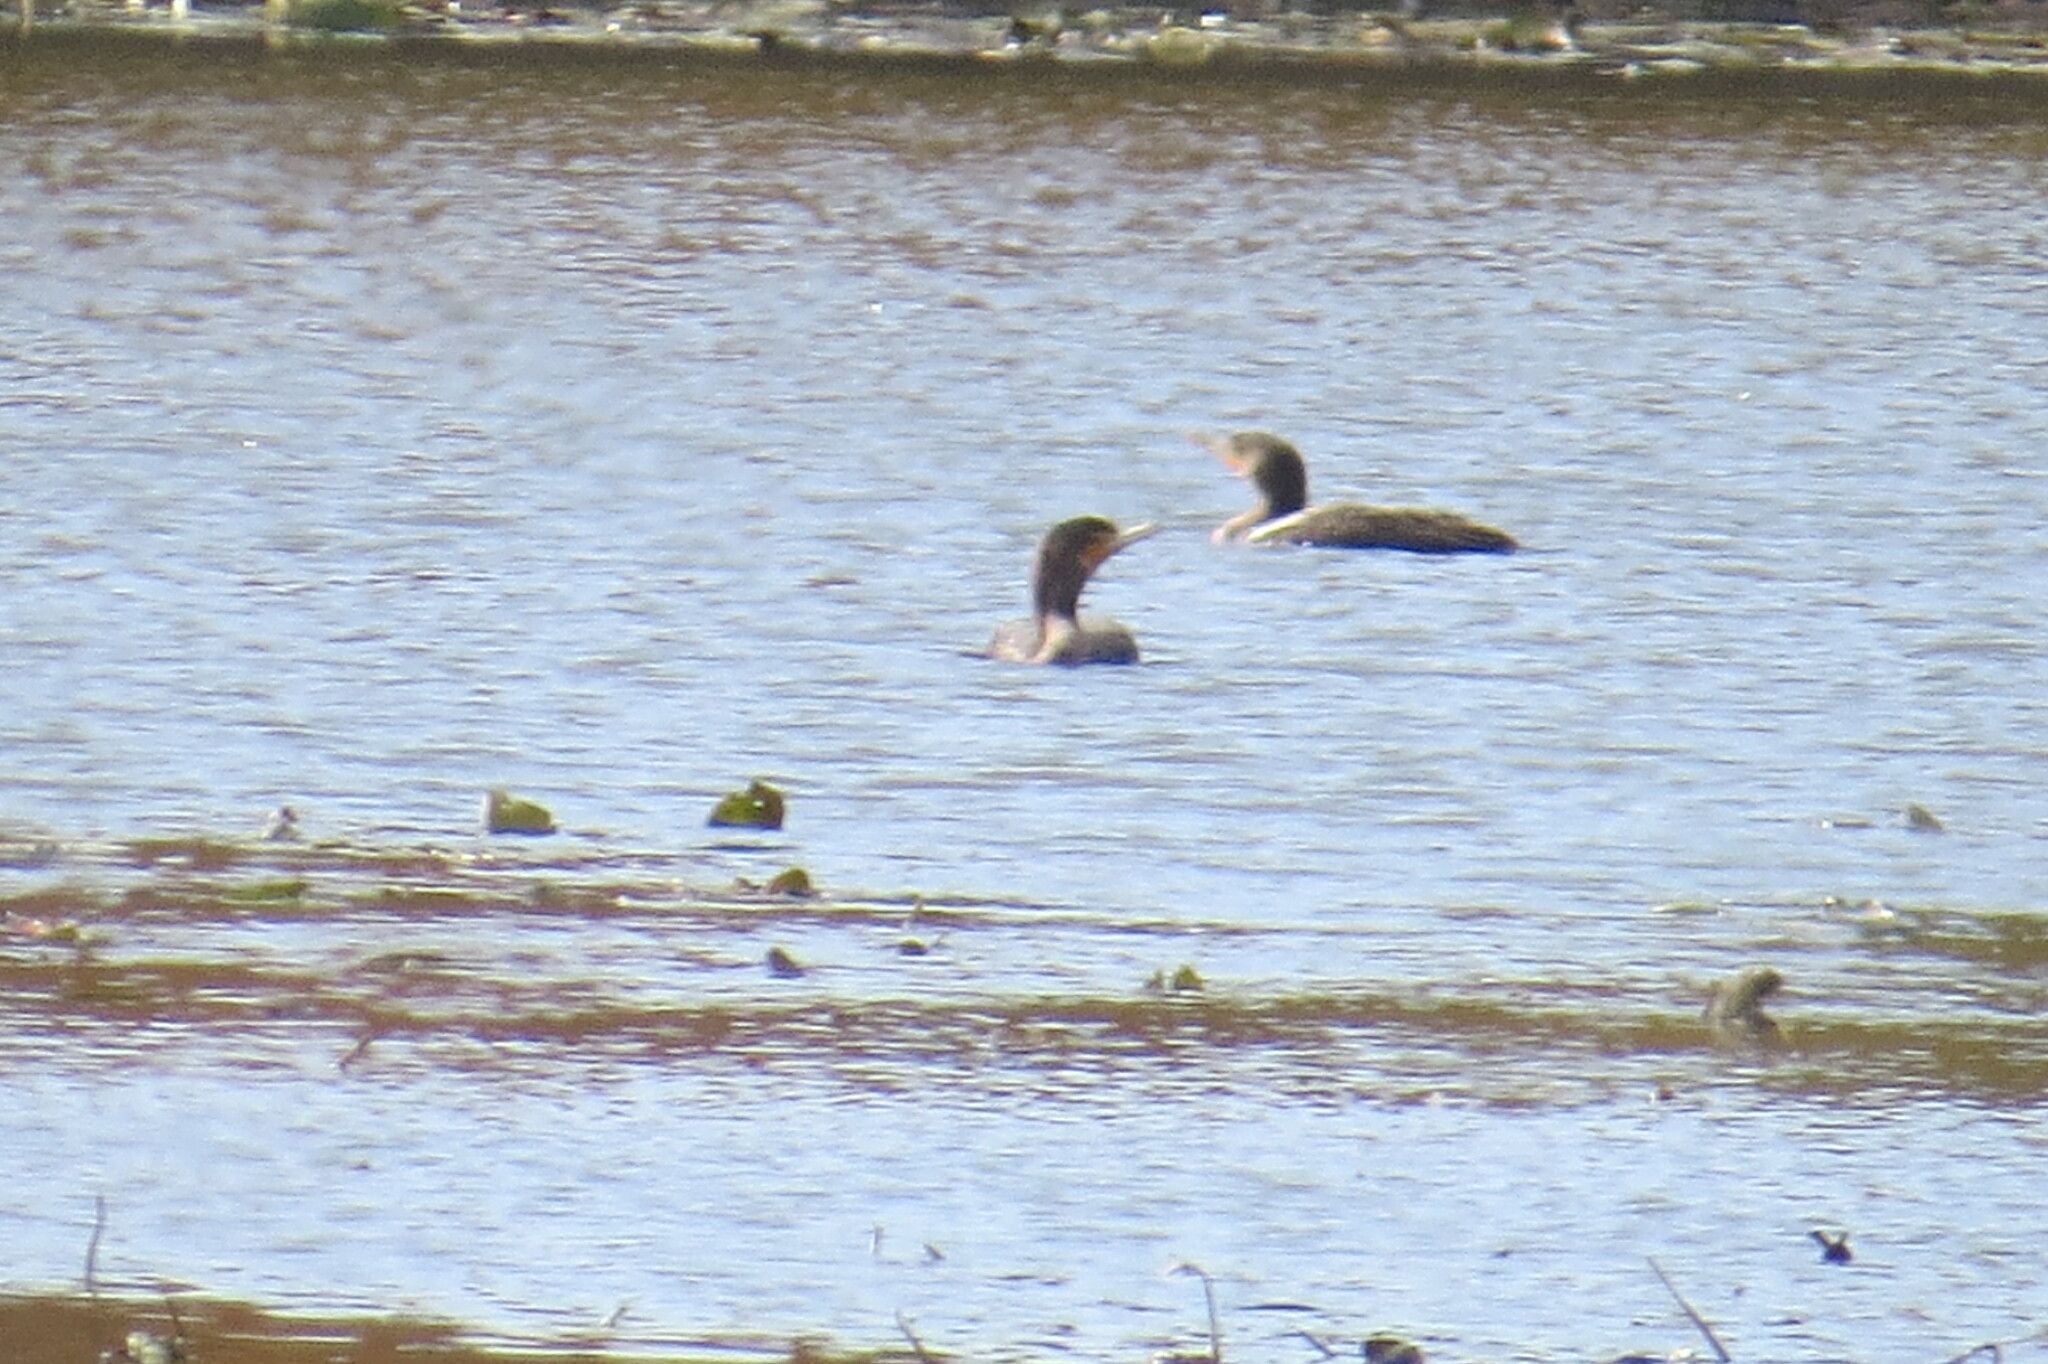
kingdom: Animalia
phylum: Chordata
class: Aves
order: Suliformes
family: Phalacrocoracidae
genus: Phalacrocorax
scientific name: Phalacrocorax auritus
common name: Double-crested cormorant
